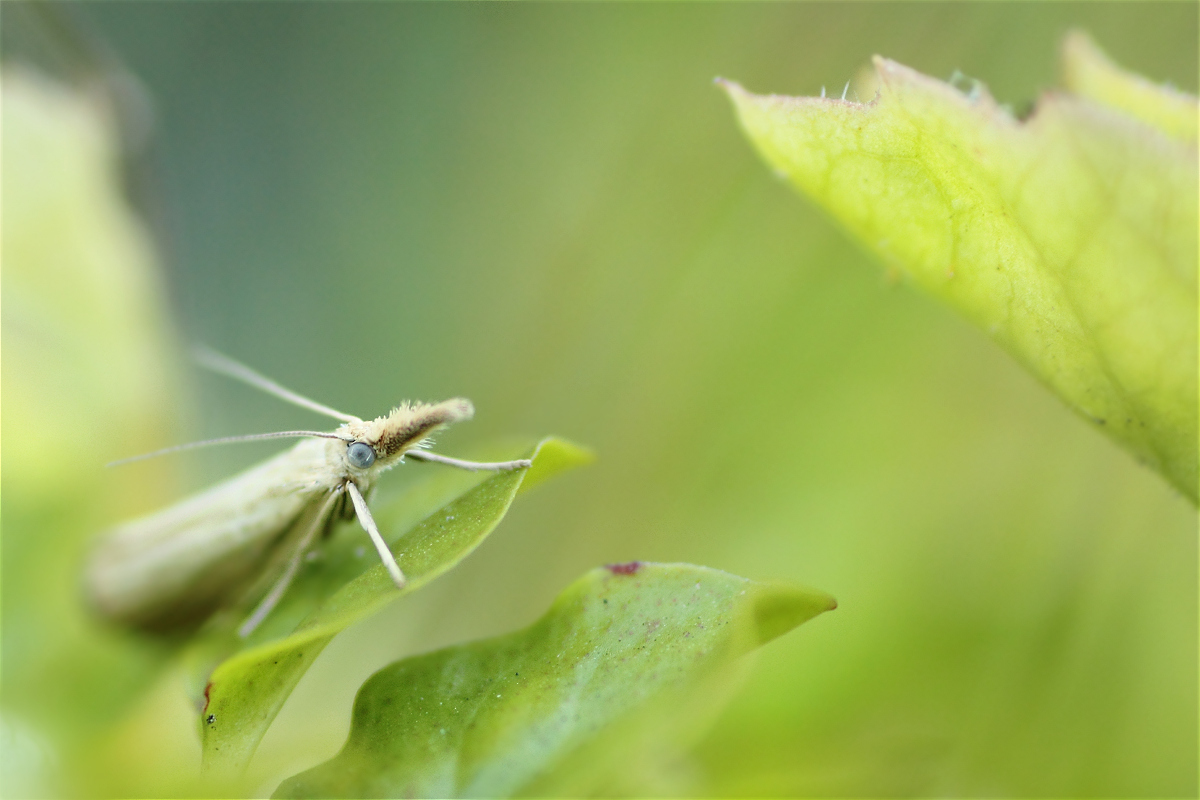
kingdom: Animalia
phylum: Arthropoda
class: Insecta
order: Lepidoptera
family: Crambidae
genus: Agriphila
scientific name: Agriphila straminella
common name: Straw grass-veneer
